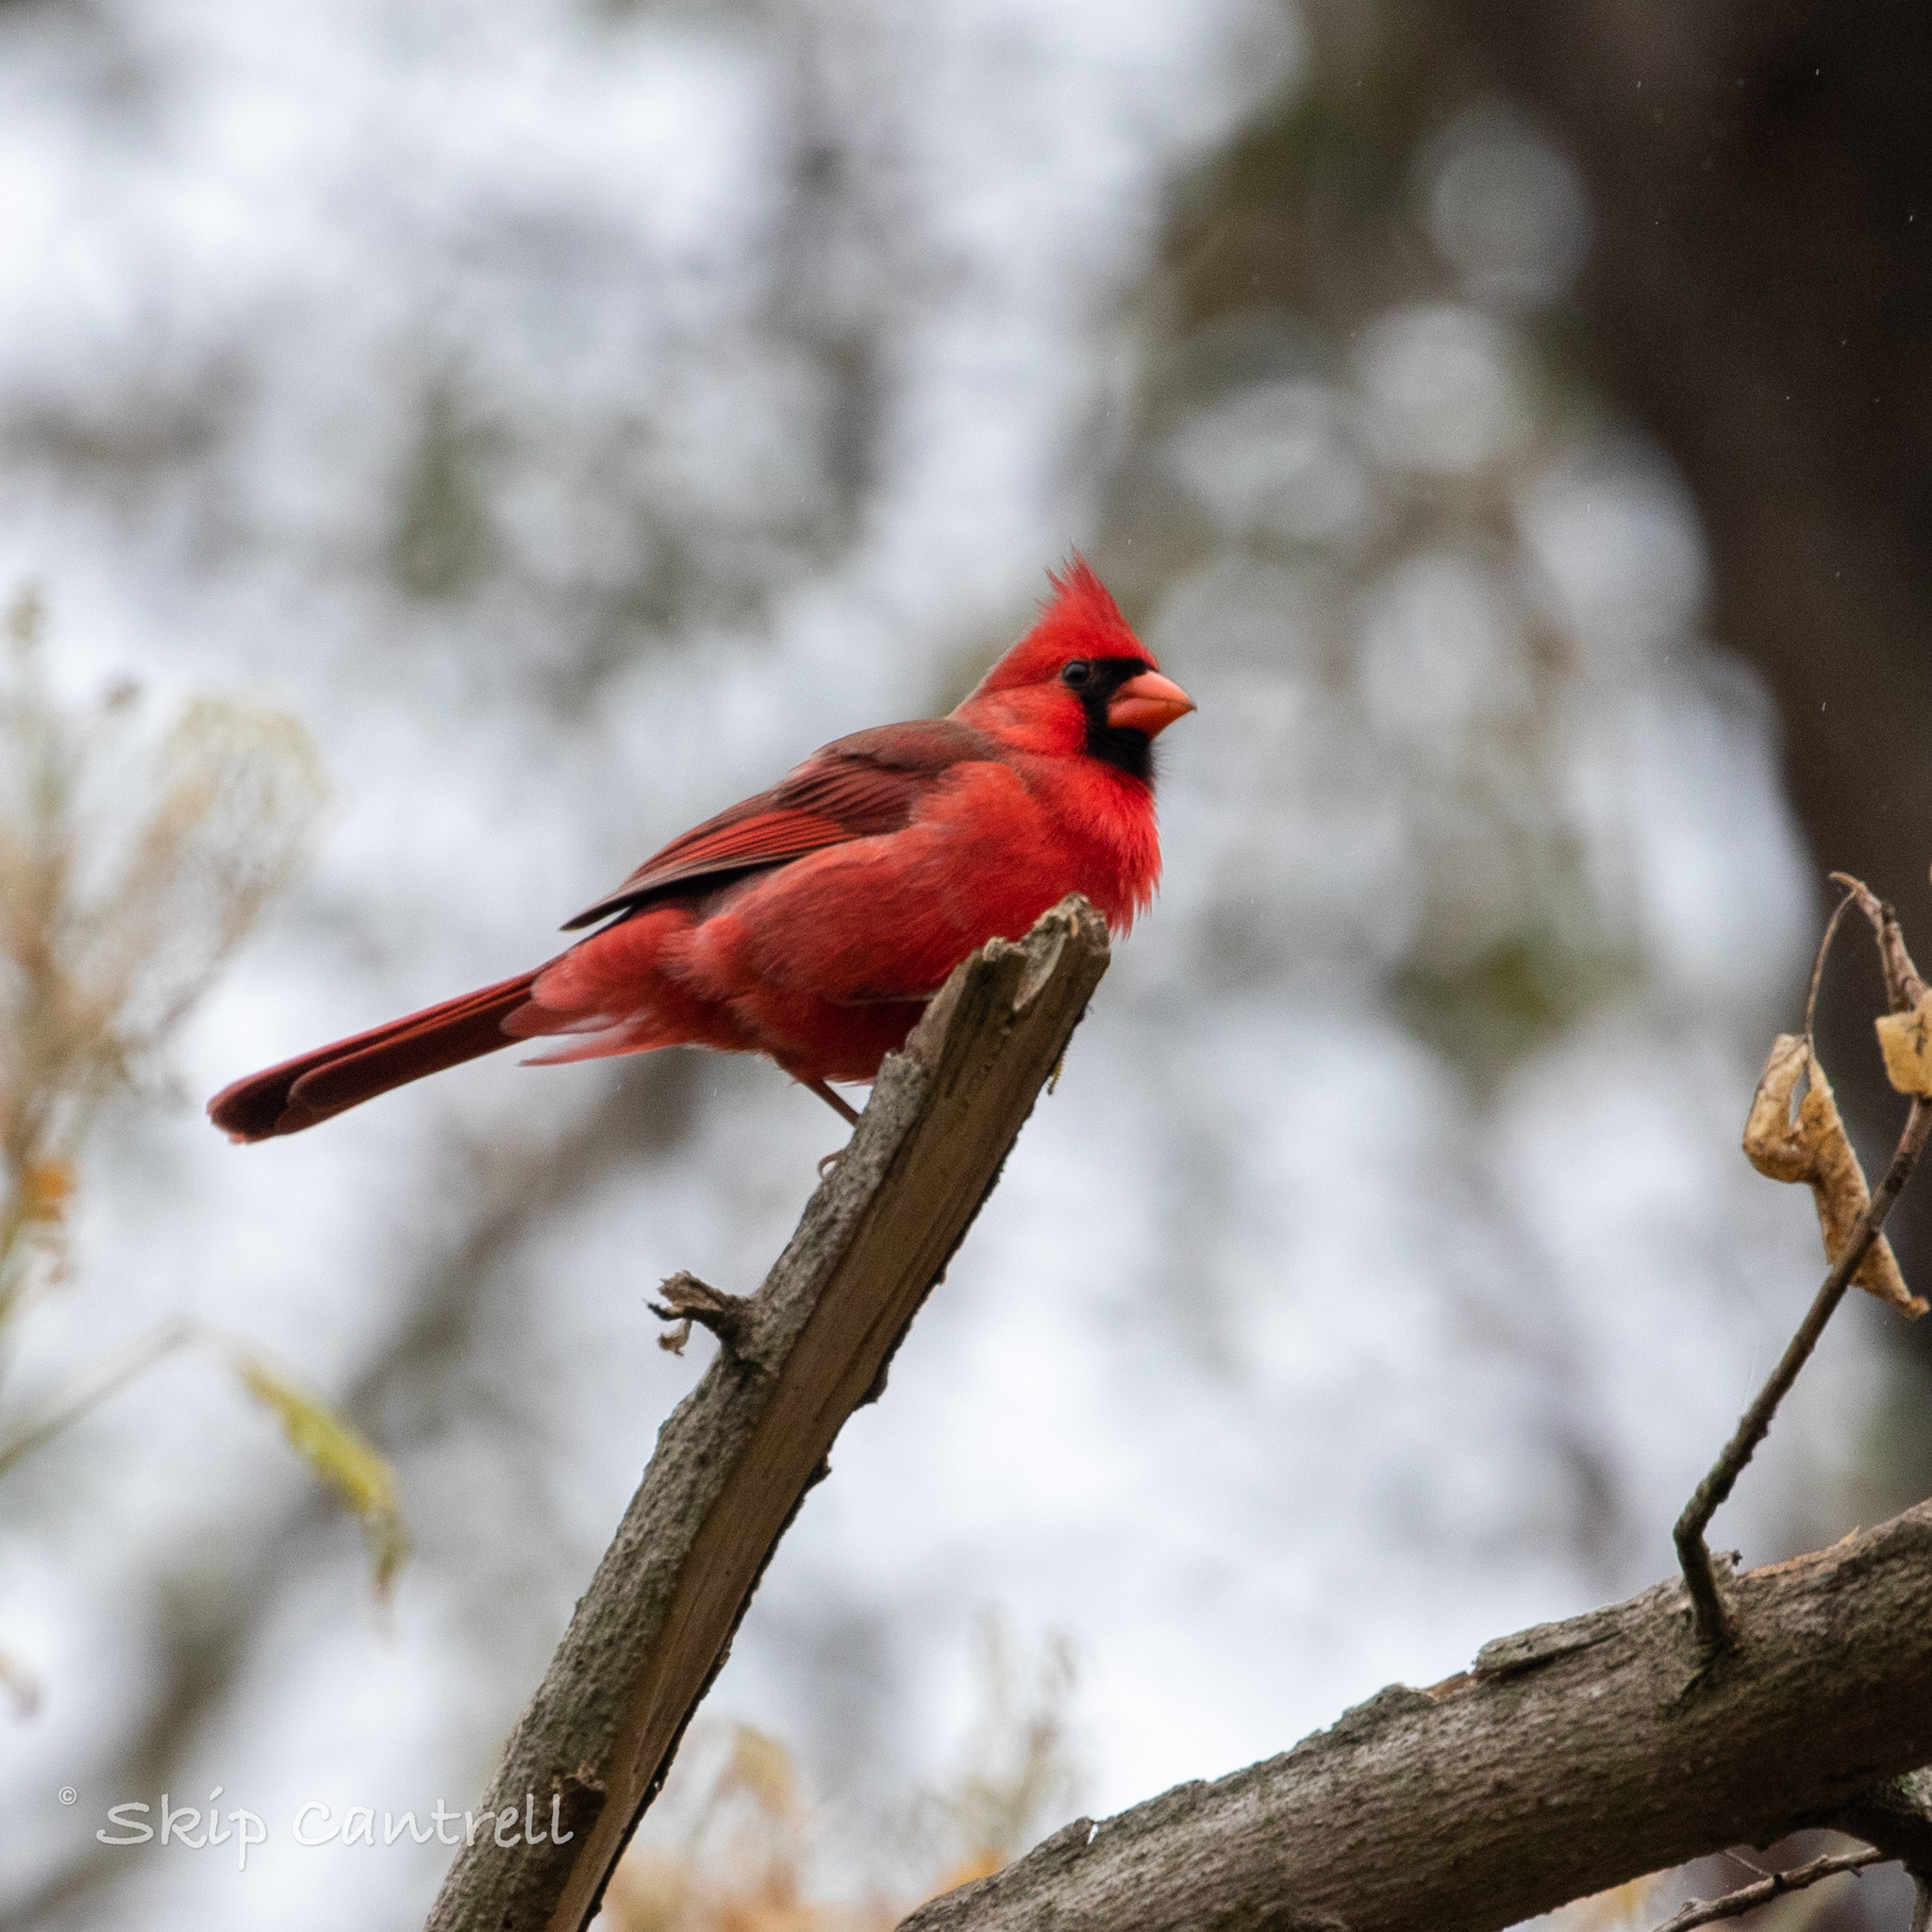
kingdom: Animalia
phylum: Chordata
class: Aves
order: Passeriformes
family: Cardinalidae
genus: Cardinalis
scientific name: Cardinalis cardinalis
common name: Northern cardinal
